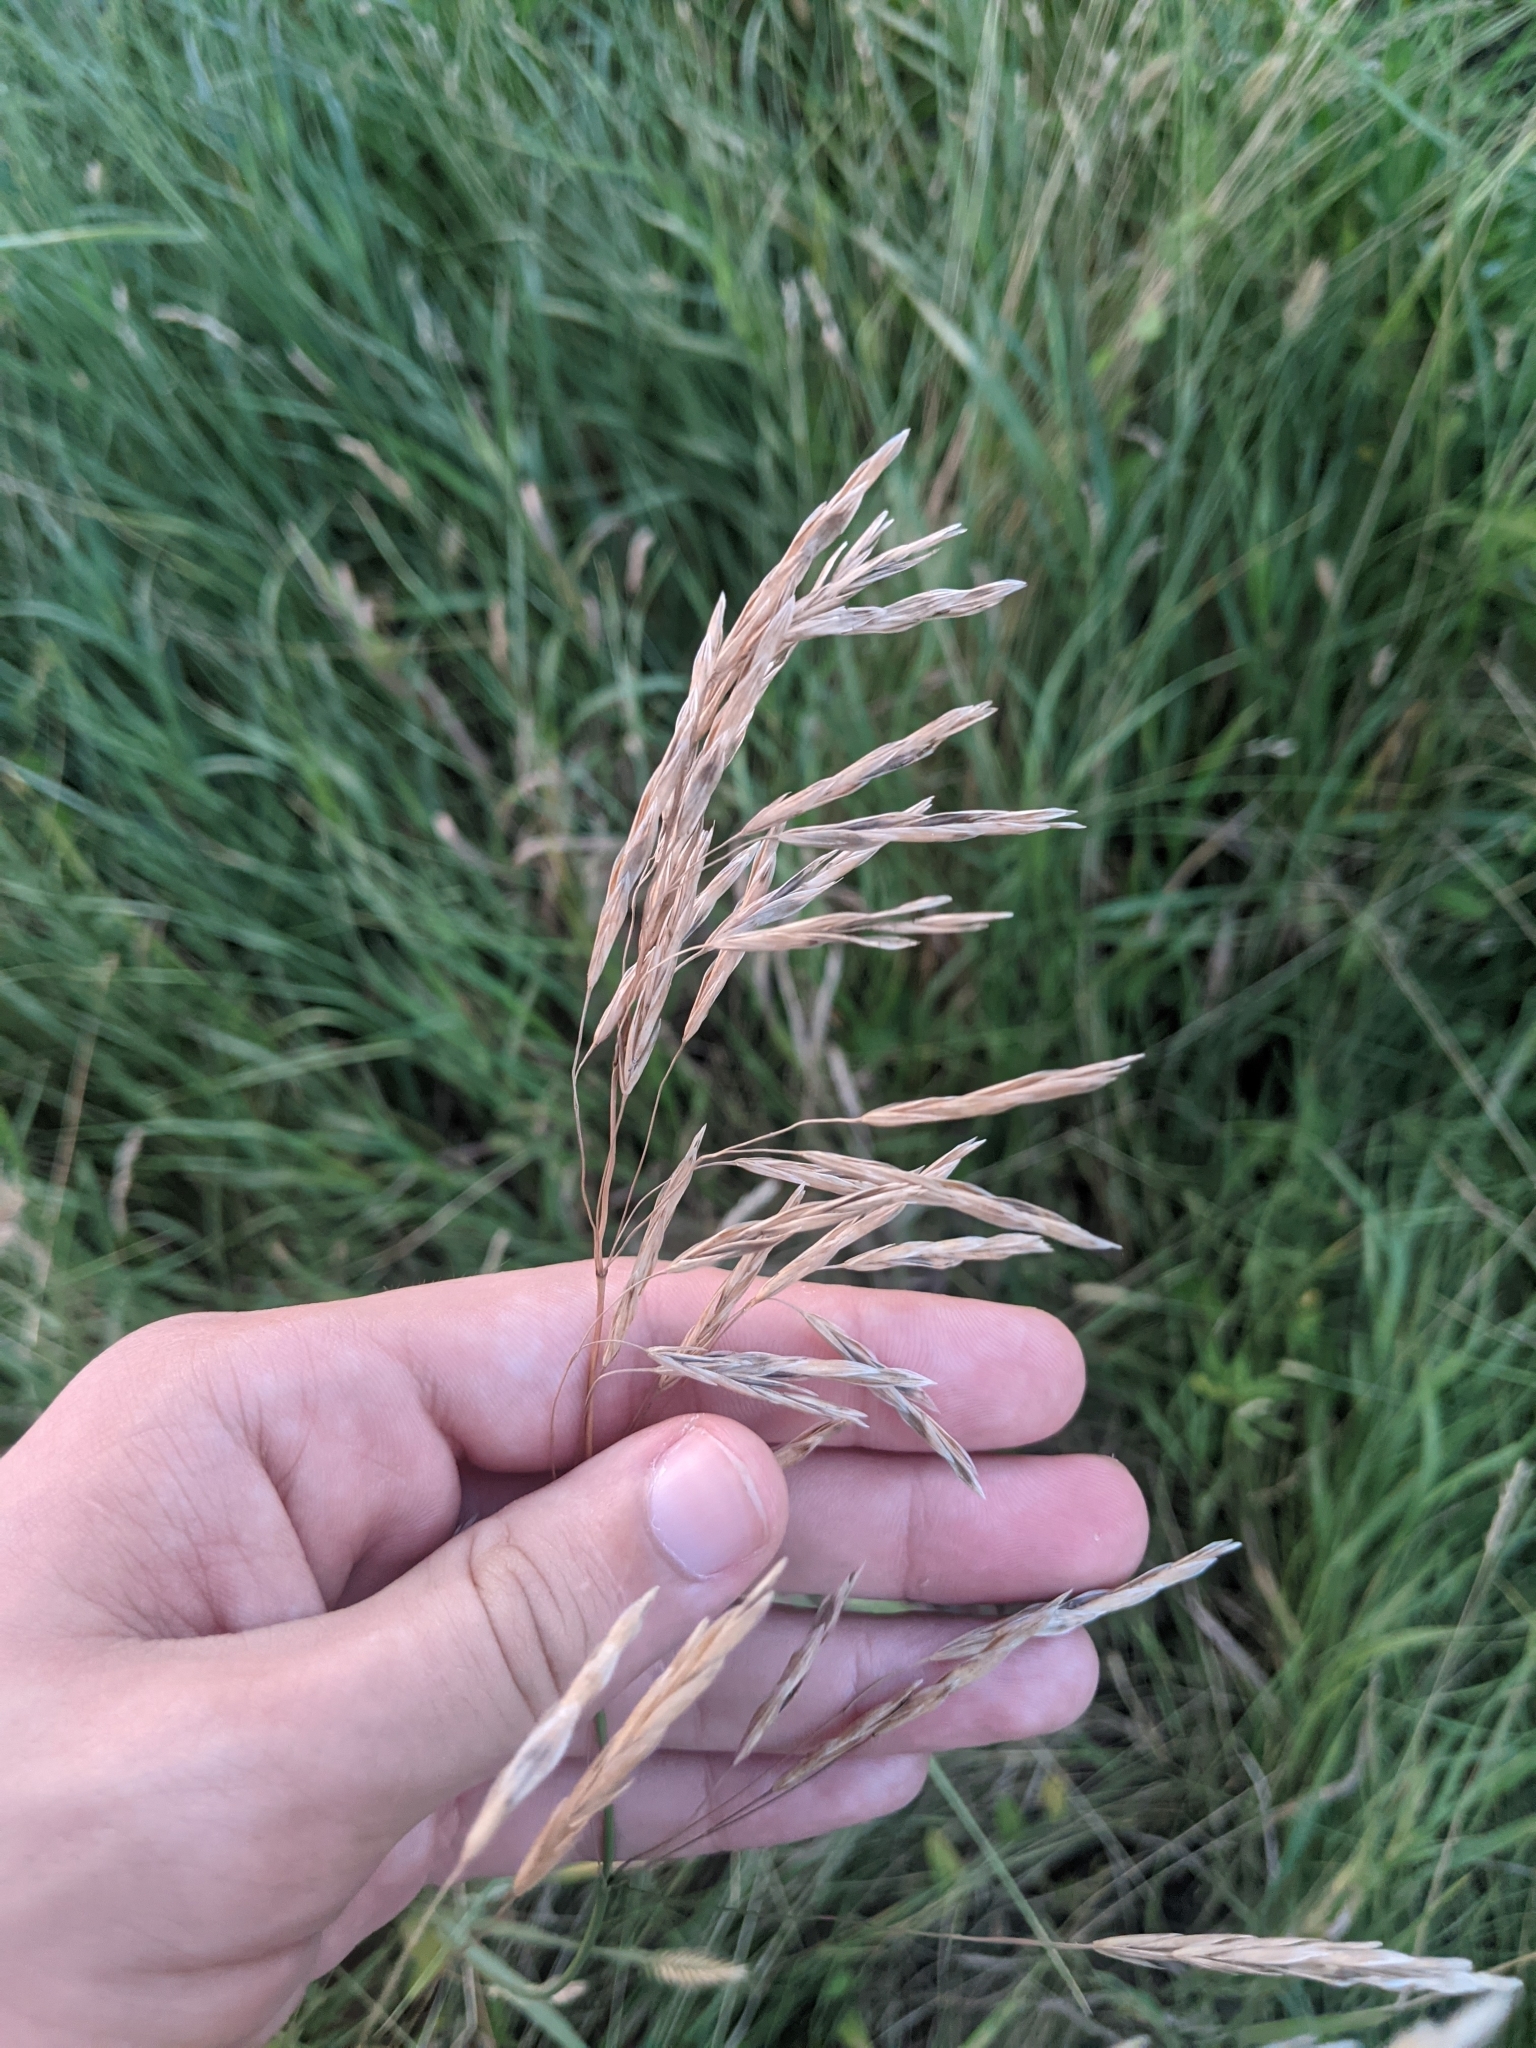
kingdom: Plantae
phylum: Tracheophyta
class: Liliopsida
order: Poales
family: Poaceae
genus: Bromus
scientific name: Bromus inermis
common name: Smooth brome
